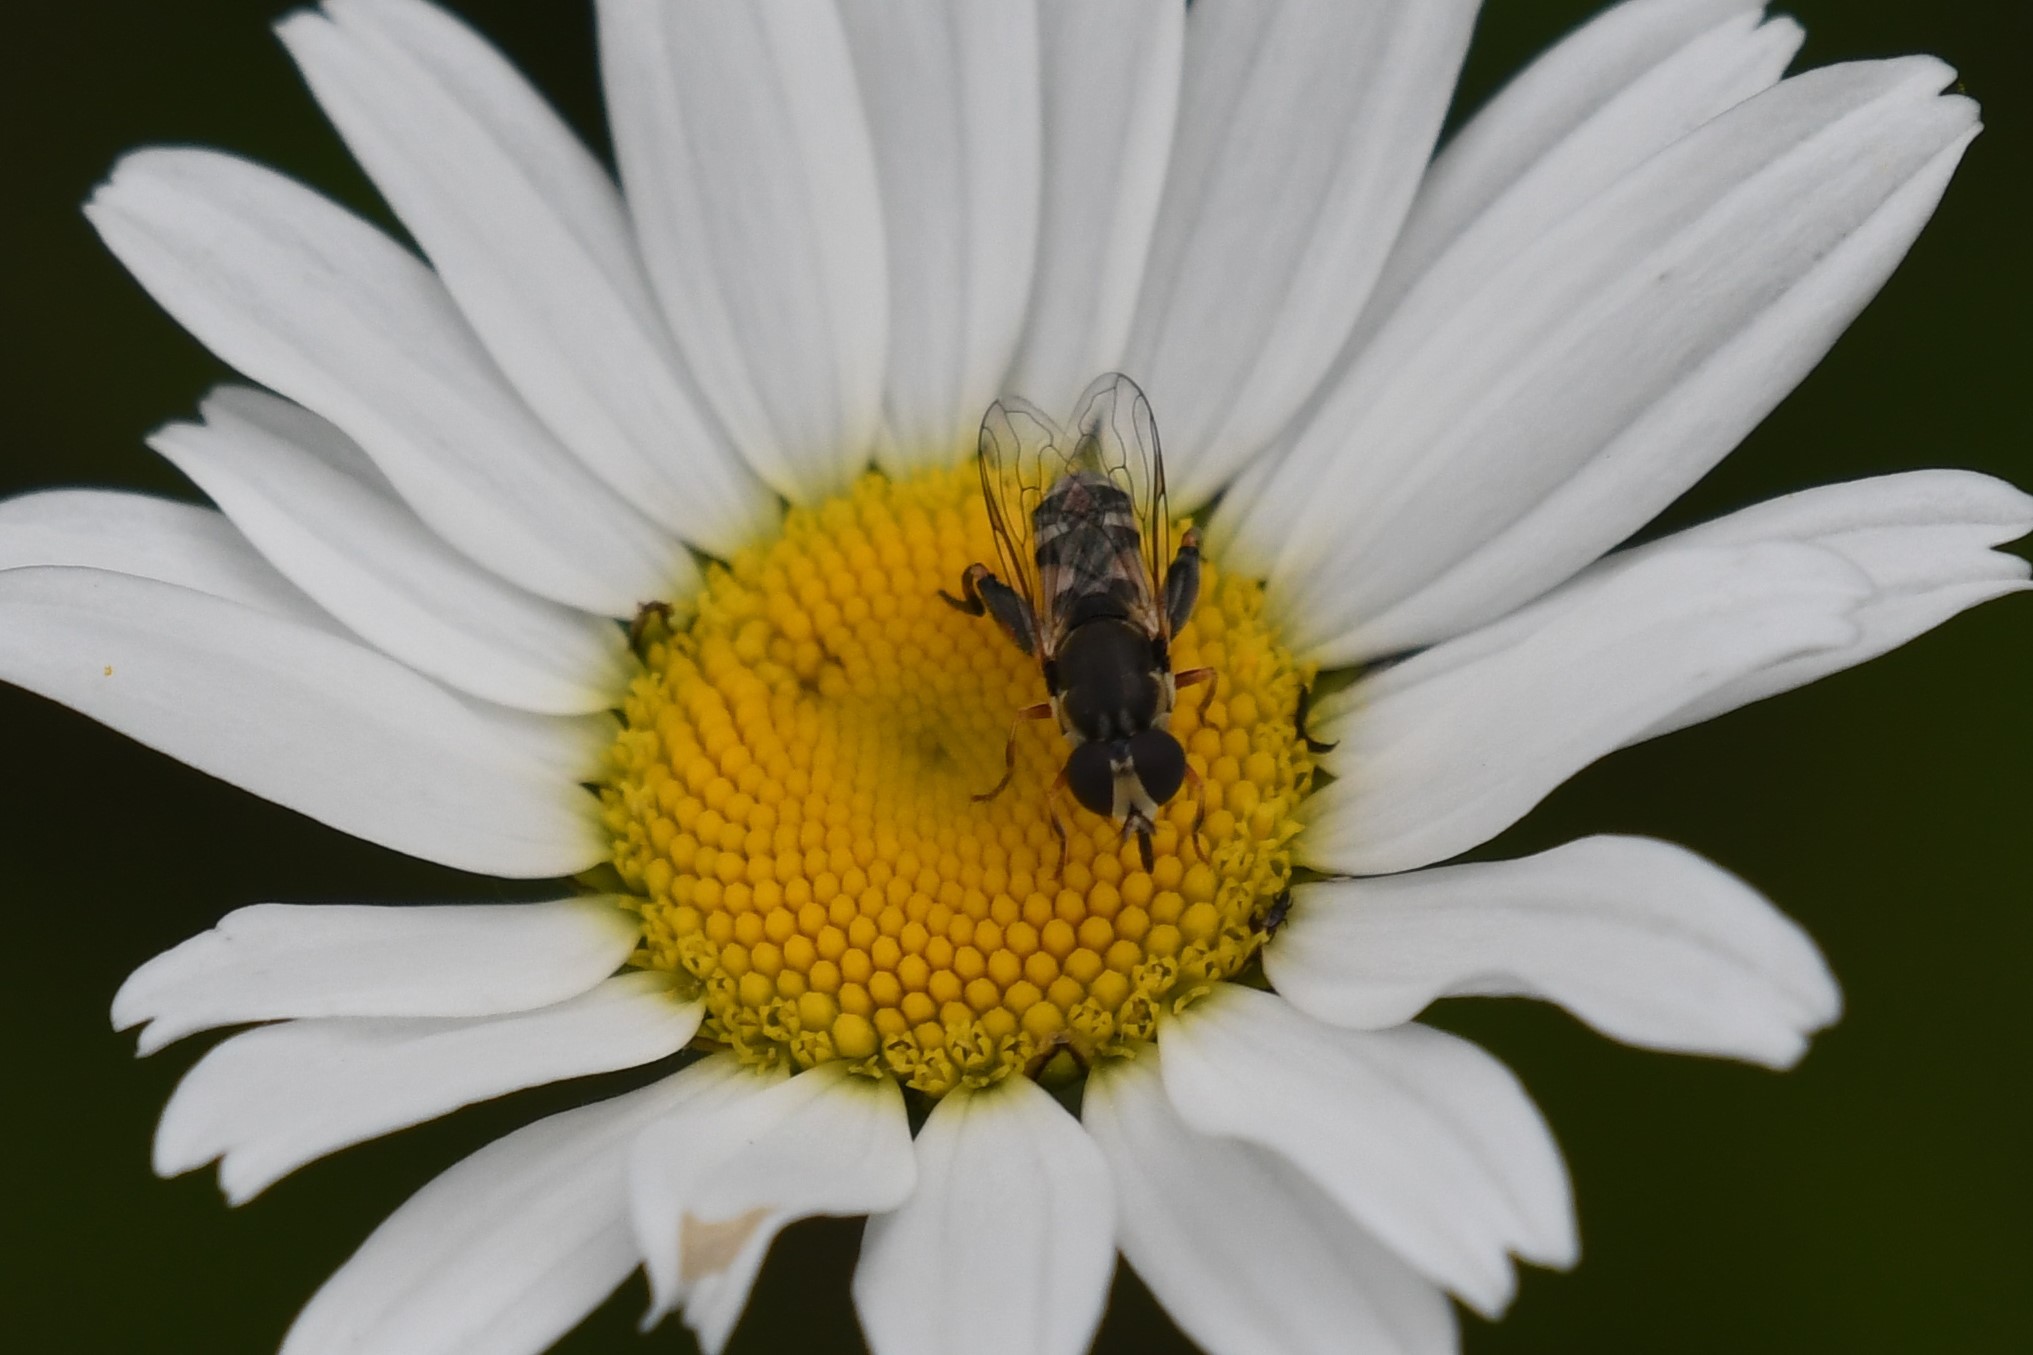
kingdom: Animalia
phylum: Arthropoda
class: Insecta
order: Diptera
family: Syrphidae
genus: Syritta
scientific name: Syritta pipiens
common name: Hover fly
